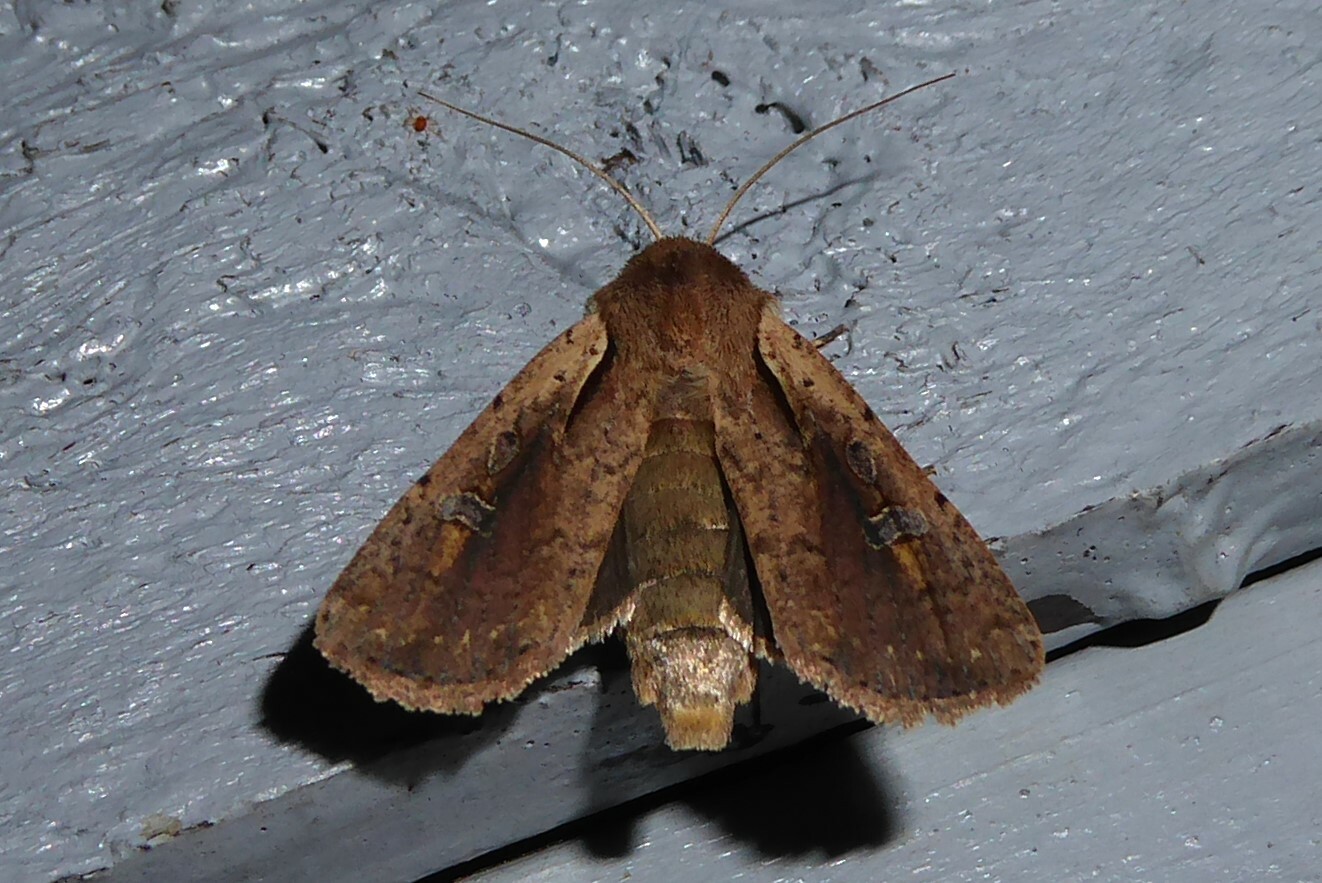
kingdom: Animalia
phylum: Arthropoda
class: Insecta
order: Lepidoptera
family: Noctuidae
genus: Ichneutica
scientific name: Ichneutica atristriga
